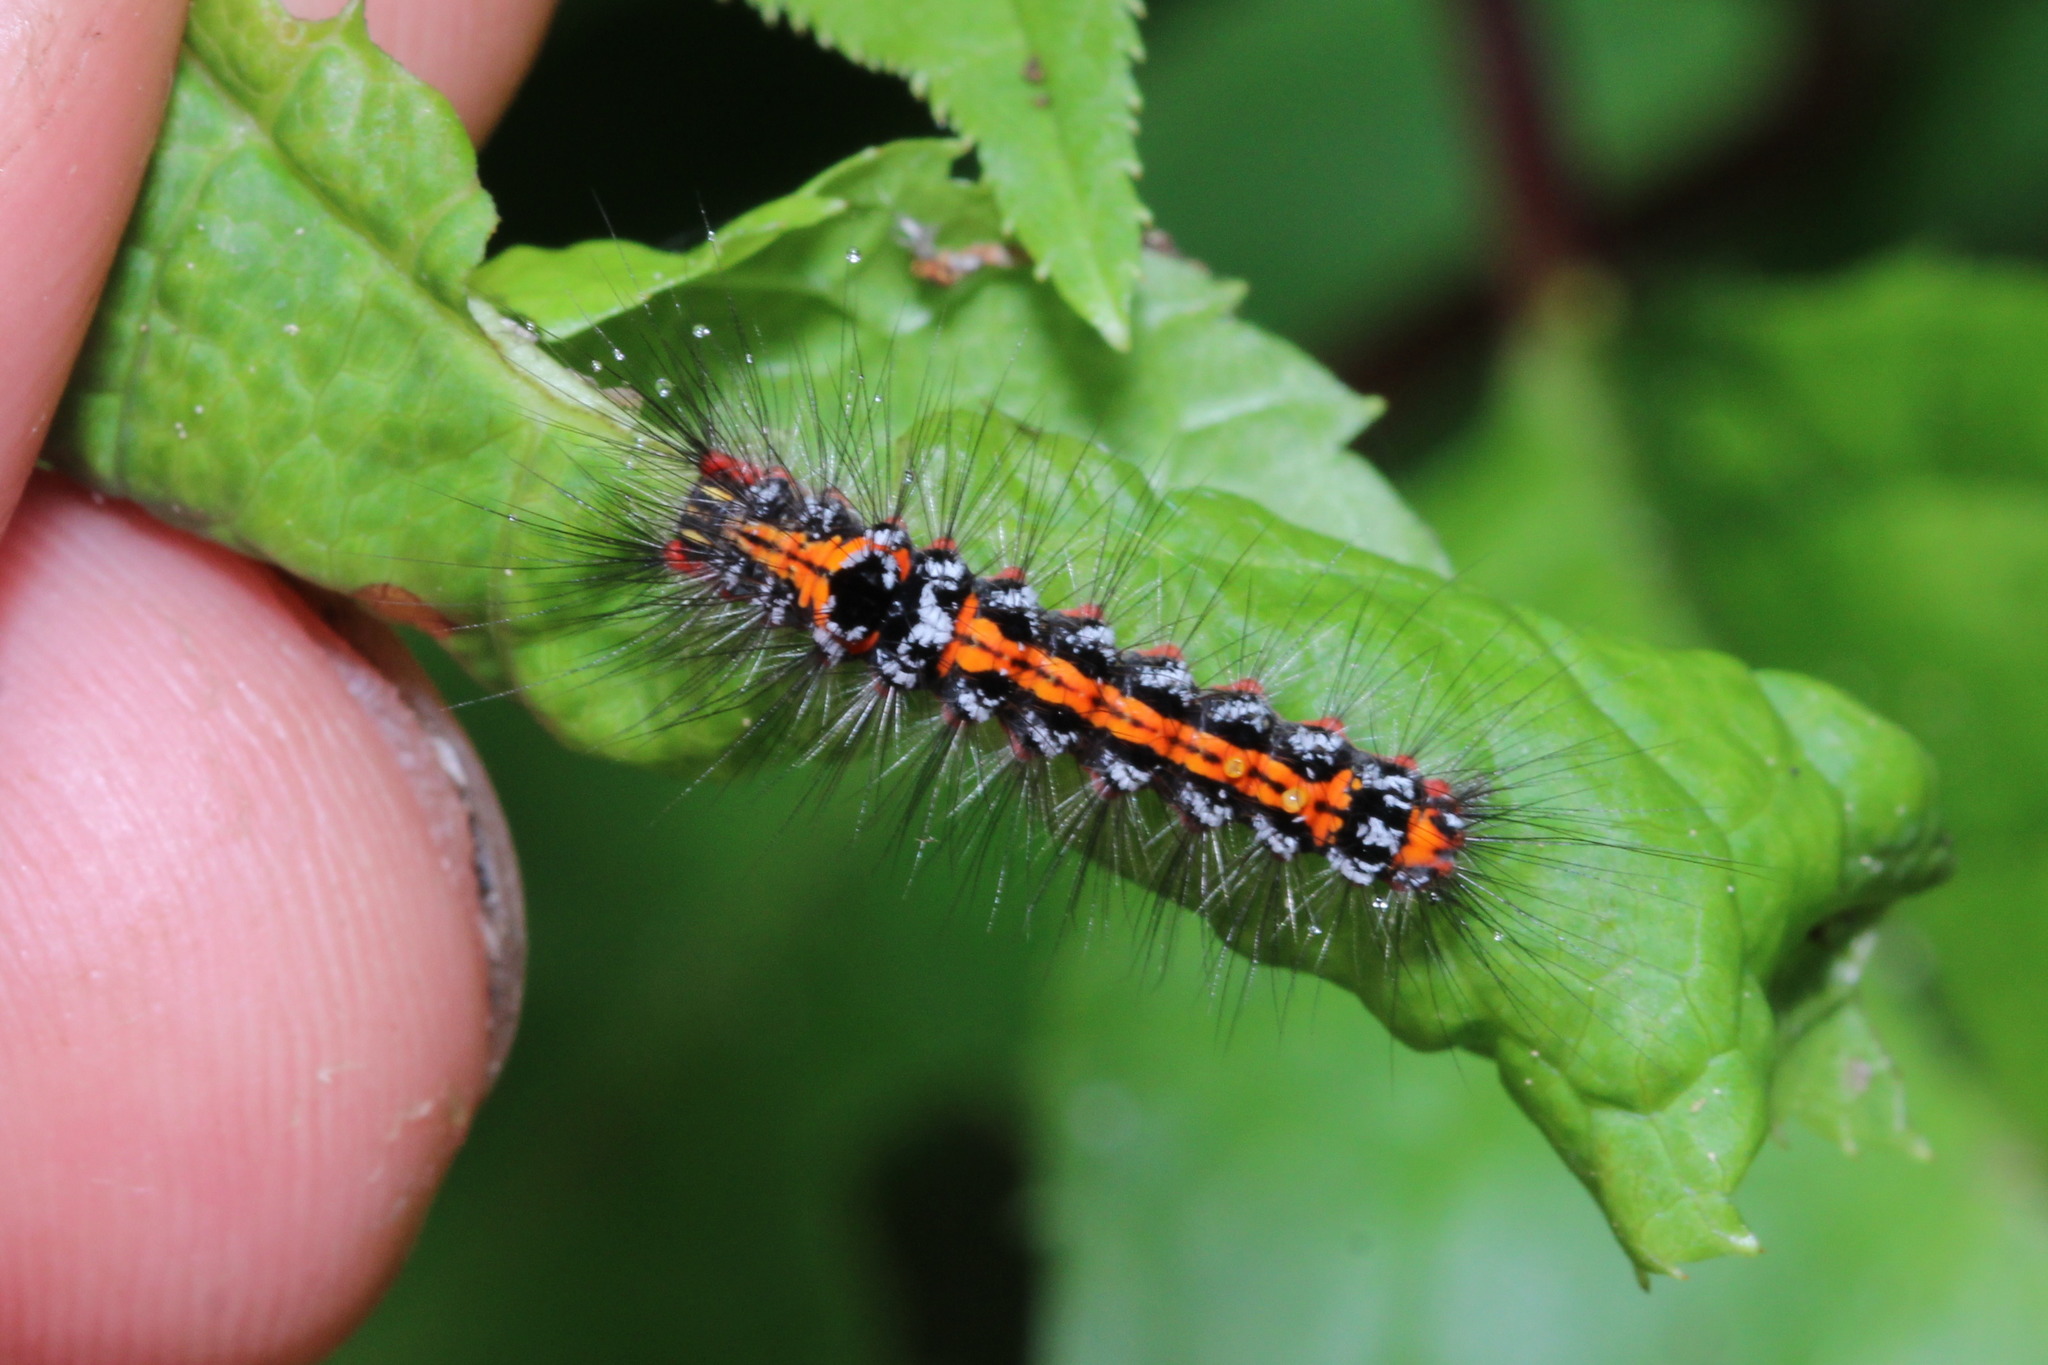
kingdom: Animalia
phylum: Arthropoda
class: Insecta
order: Lepidoptera
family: Erebidae
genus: Sphrageidus
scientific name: Sphrageidus similis
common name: Yellow-tail
